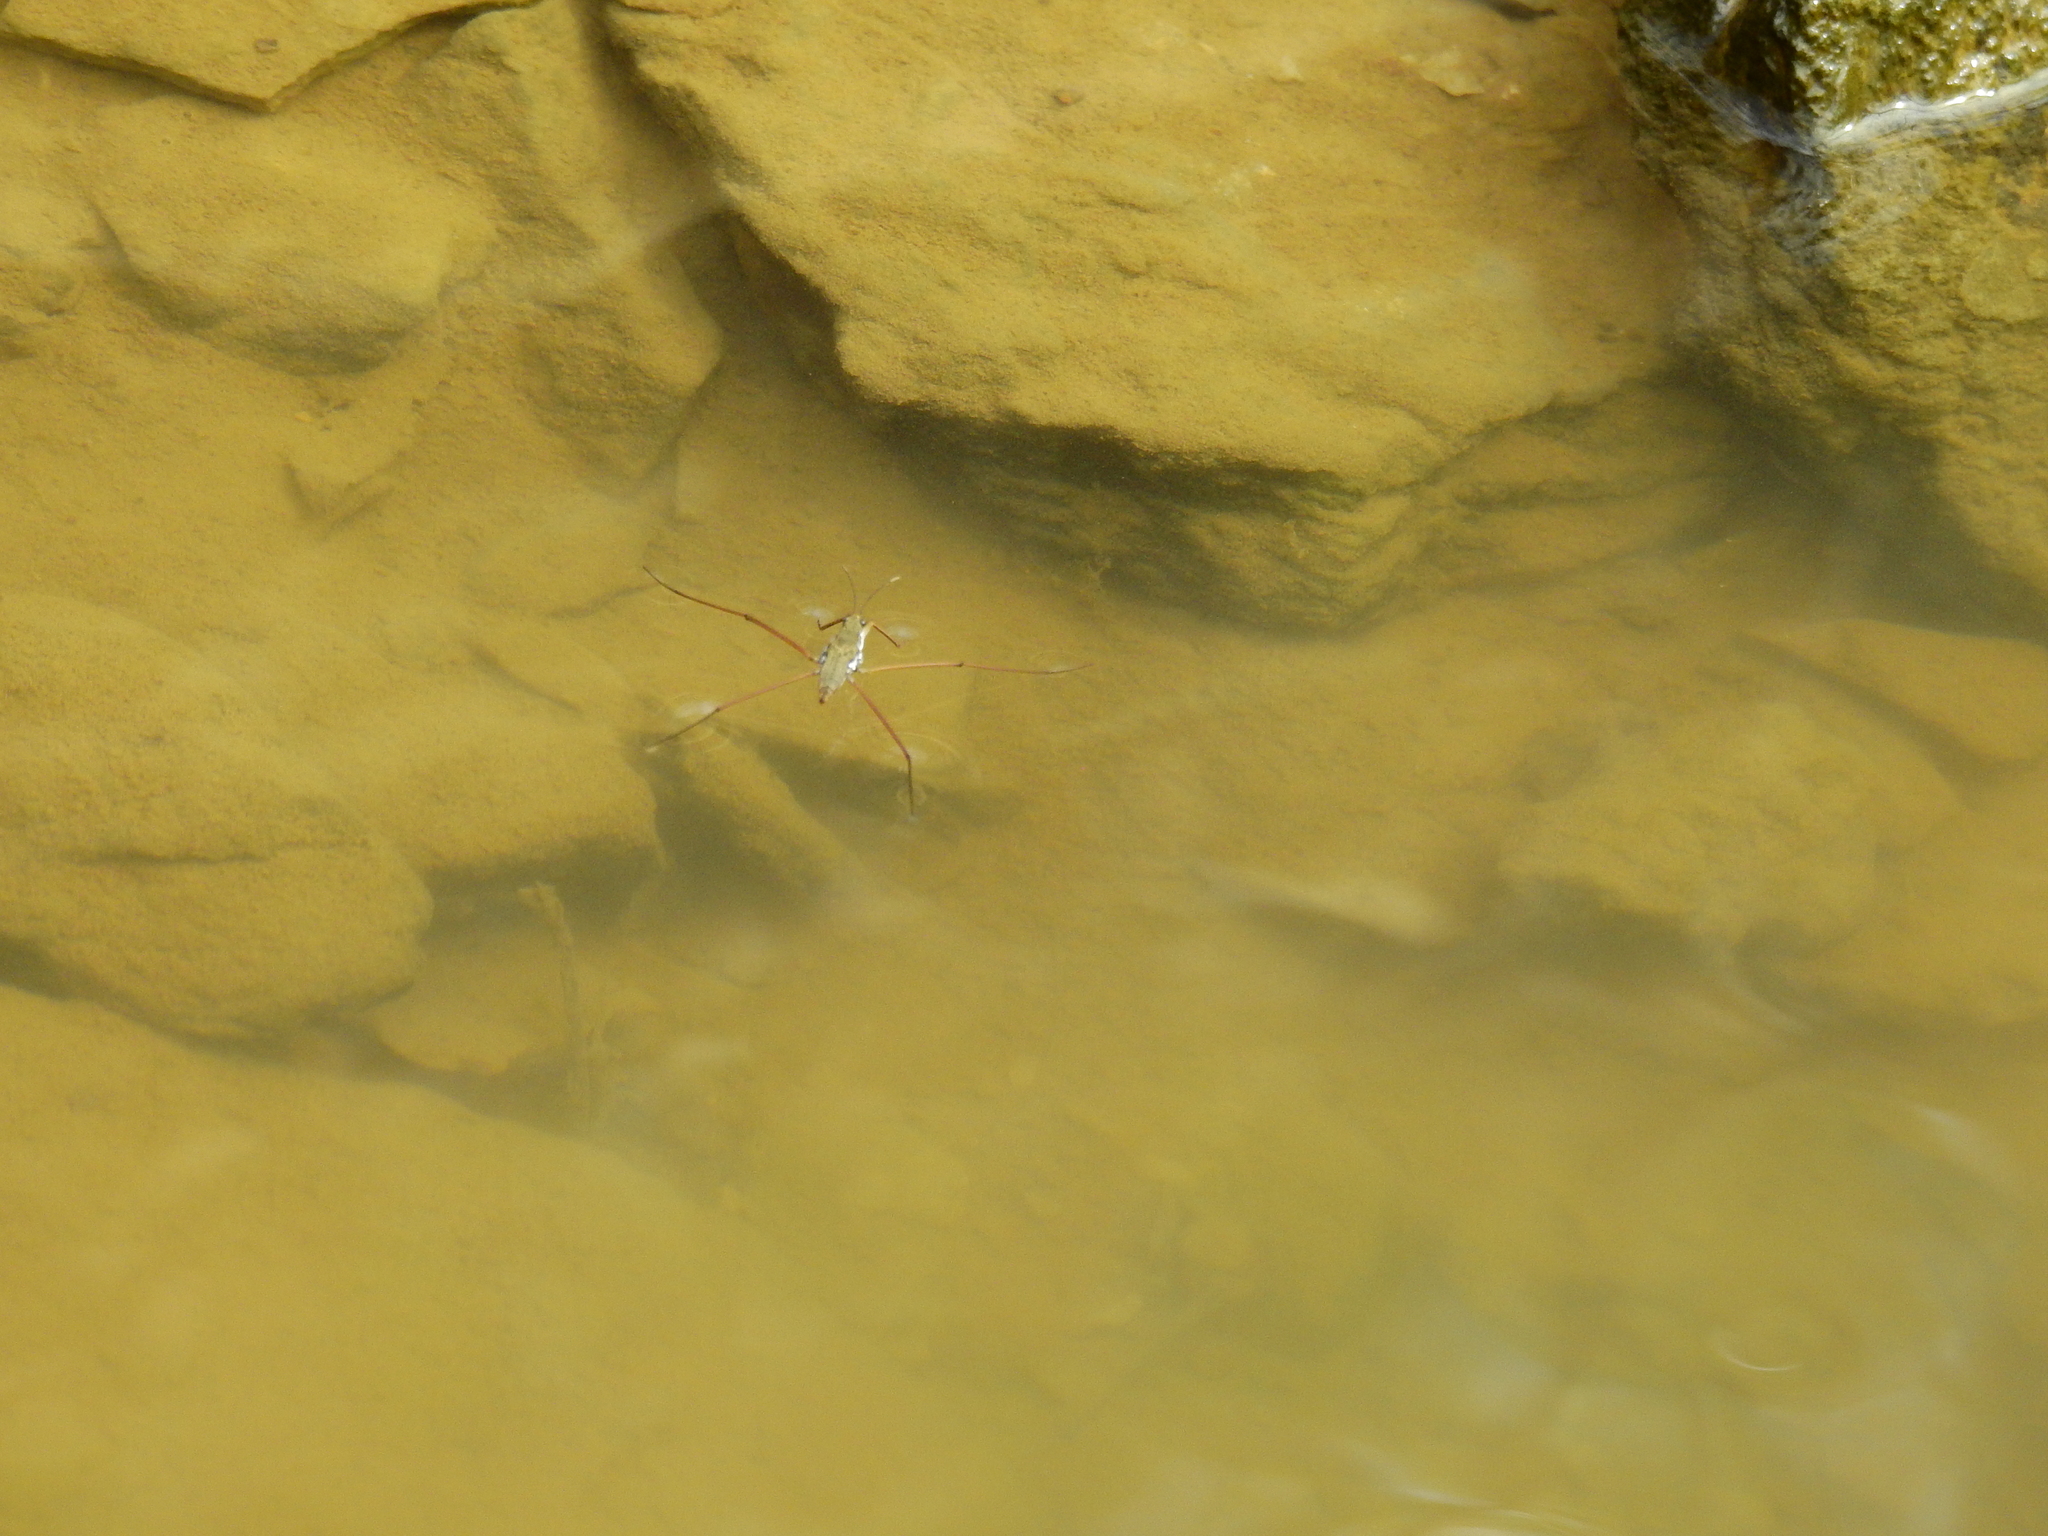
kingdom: Animalia
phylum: Arthropoda
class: Insecta
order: Hemiptera
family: Gerridae
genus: Aquarius
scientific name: Aquarius
